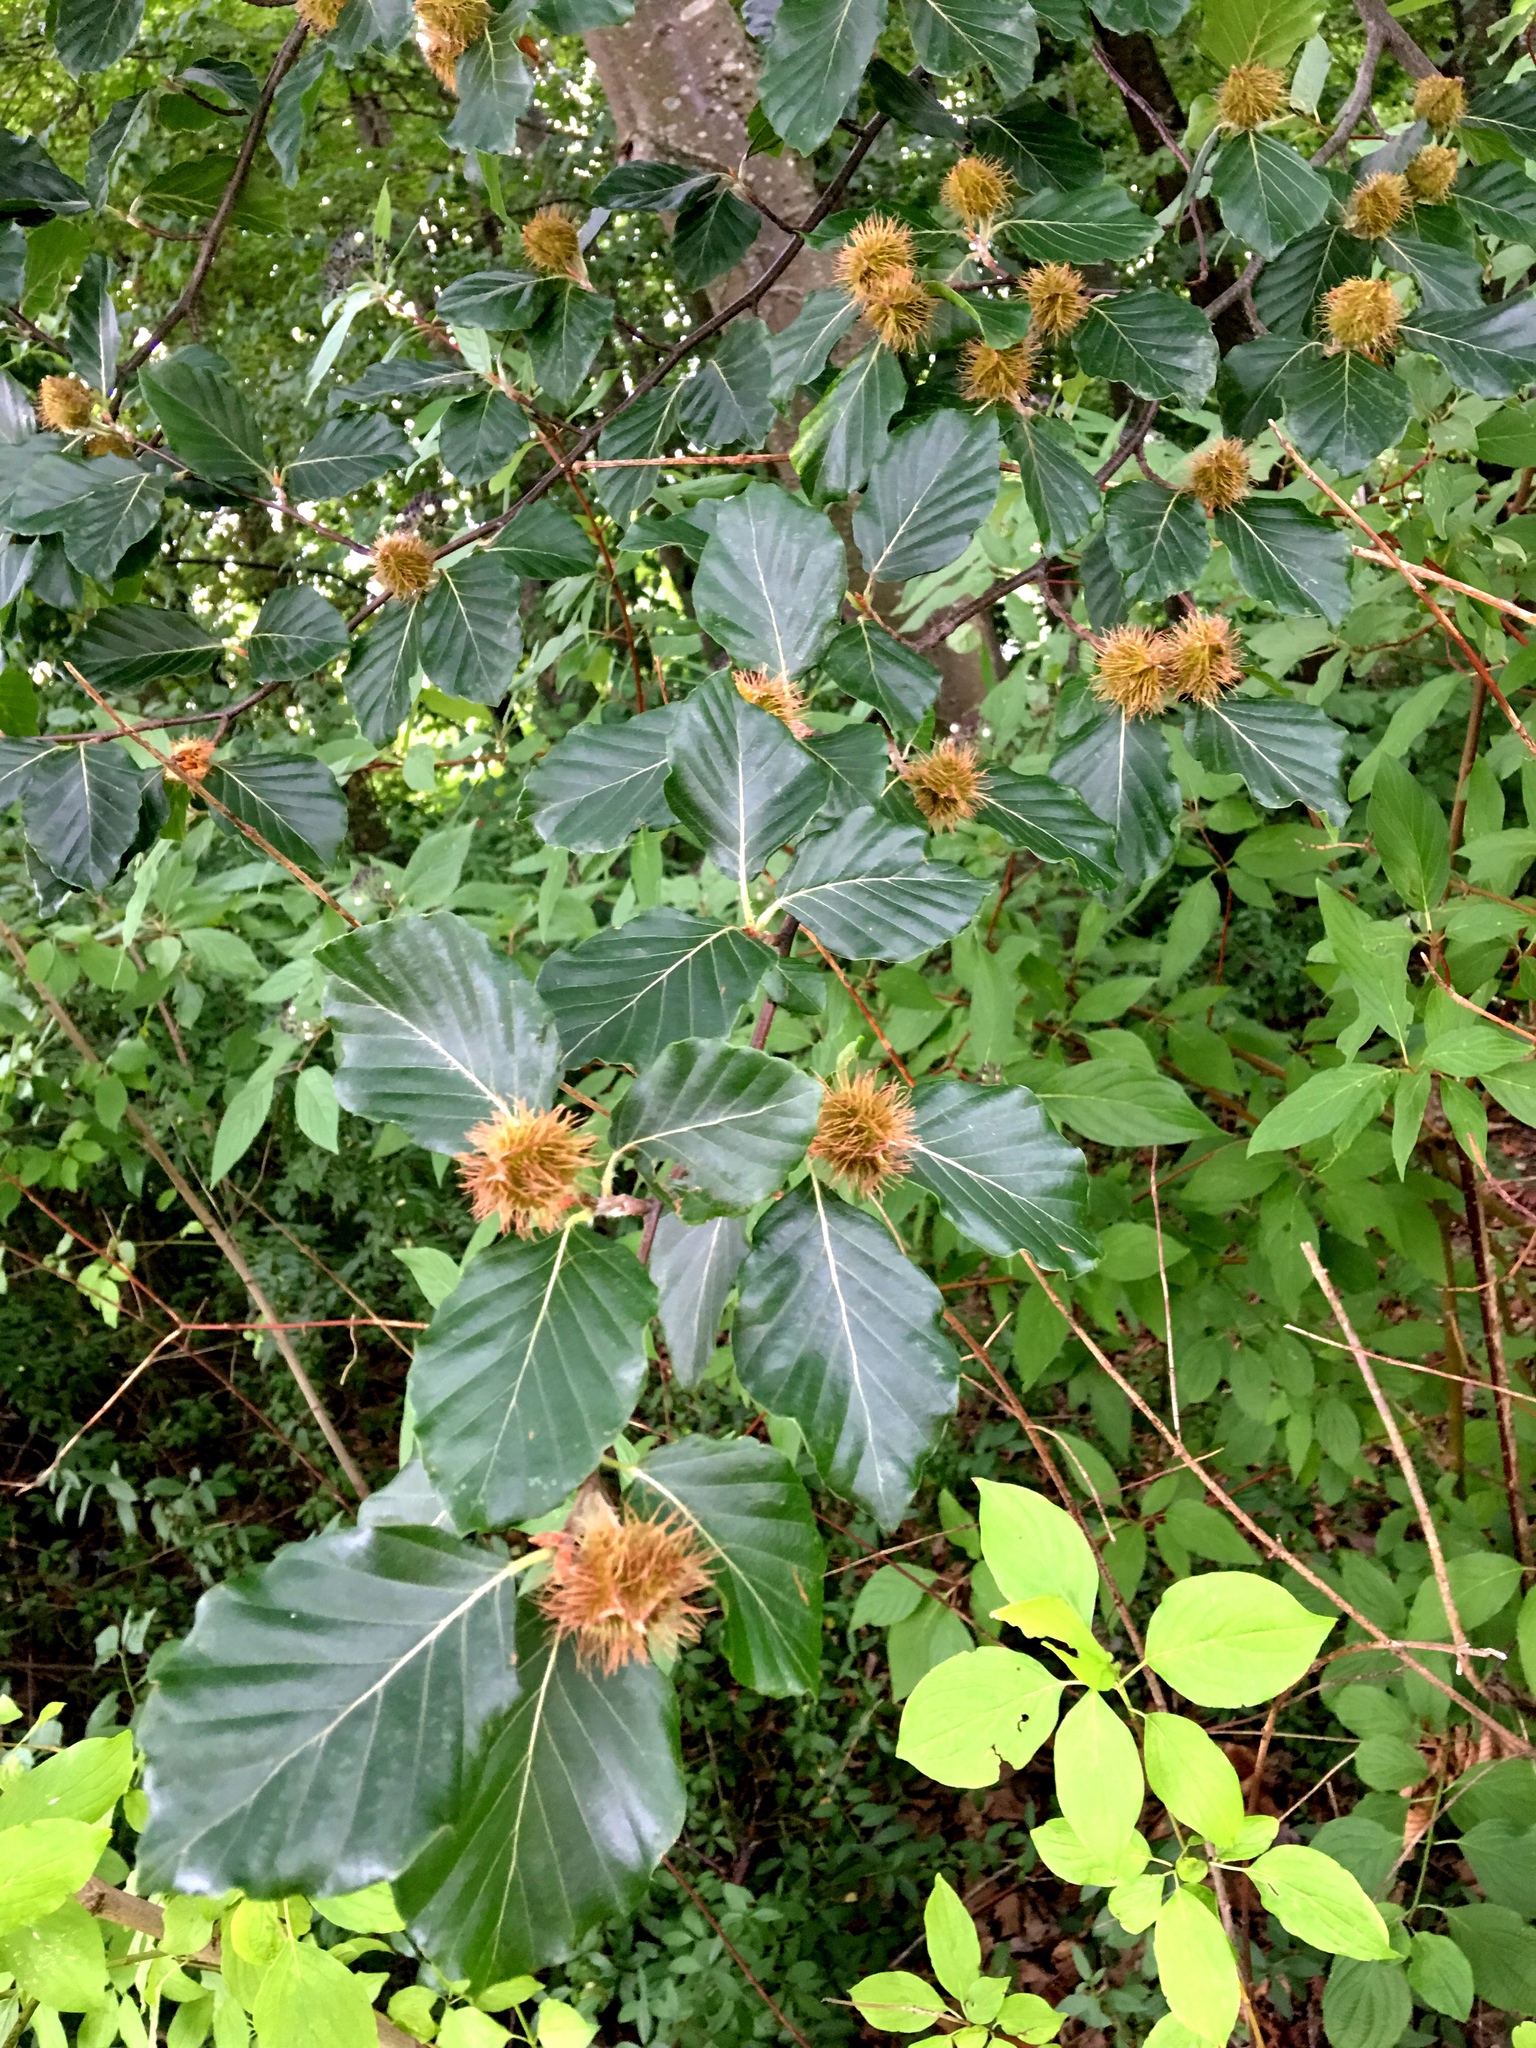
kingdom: Plantae
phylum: Tracheophyta
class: Magnoliopsida
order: Fagales
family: Fagaceae
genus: Fagus
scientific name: Fagus sylvatica
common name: Beech
